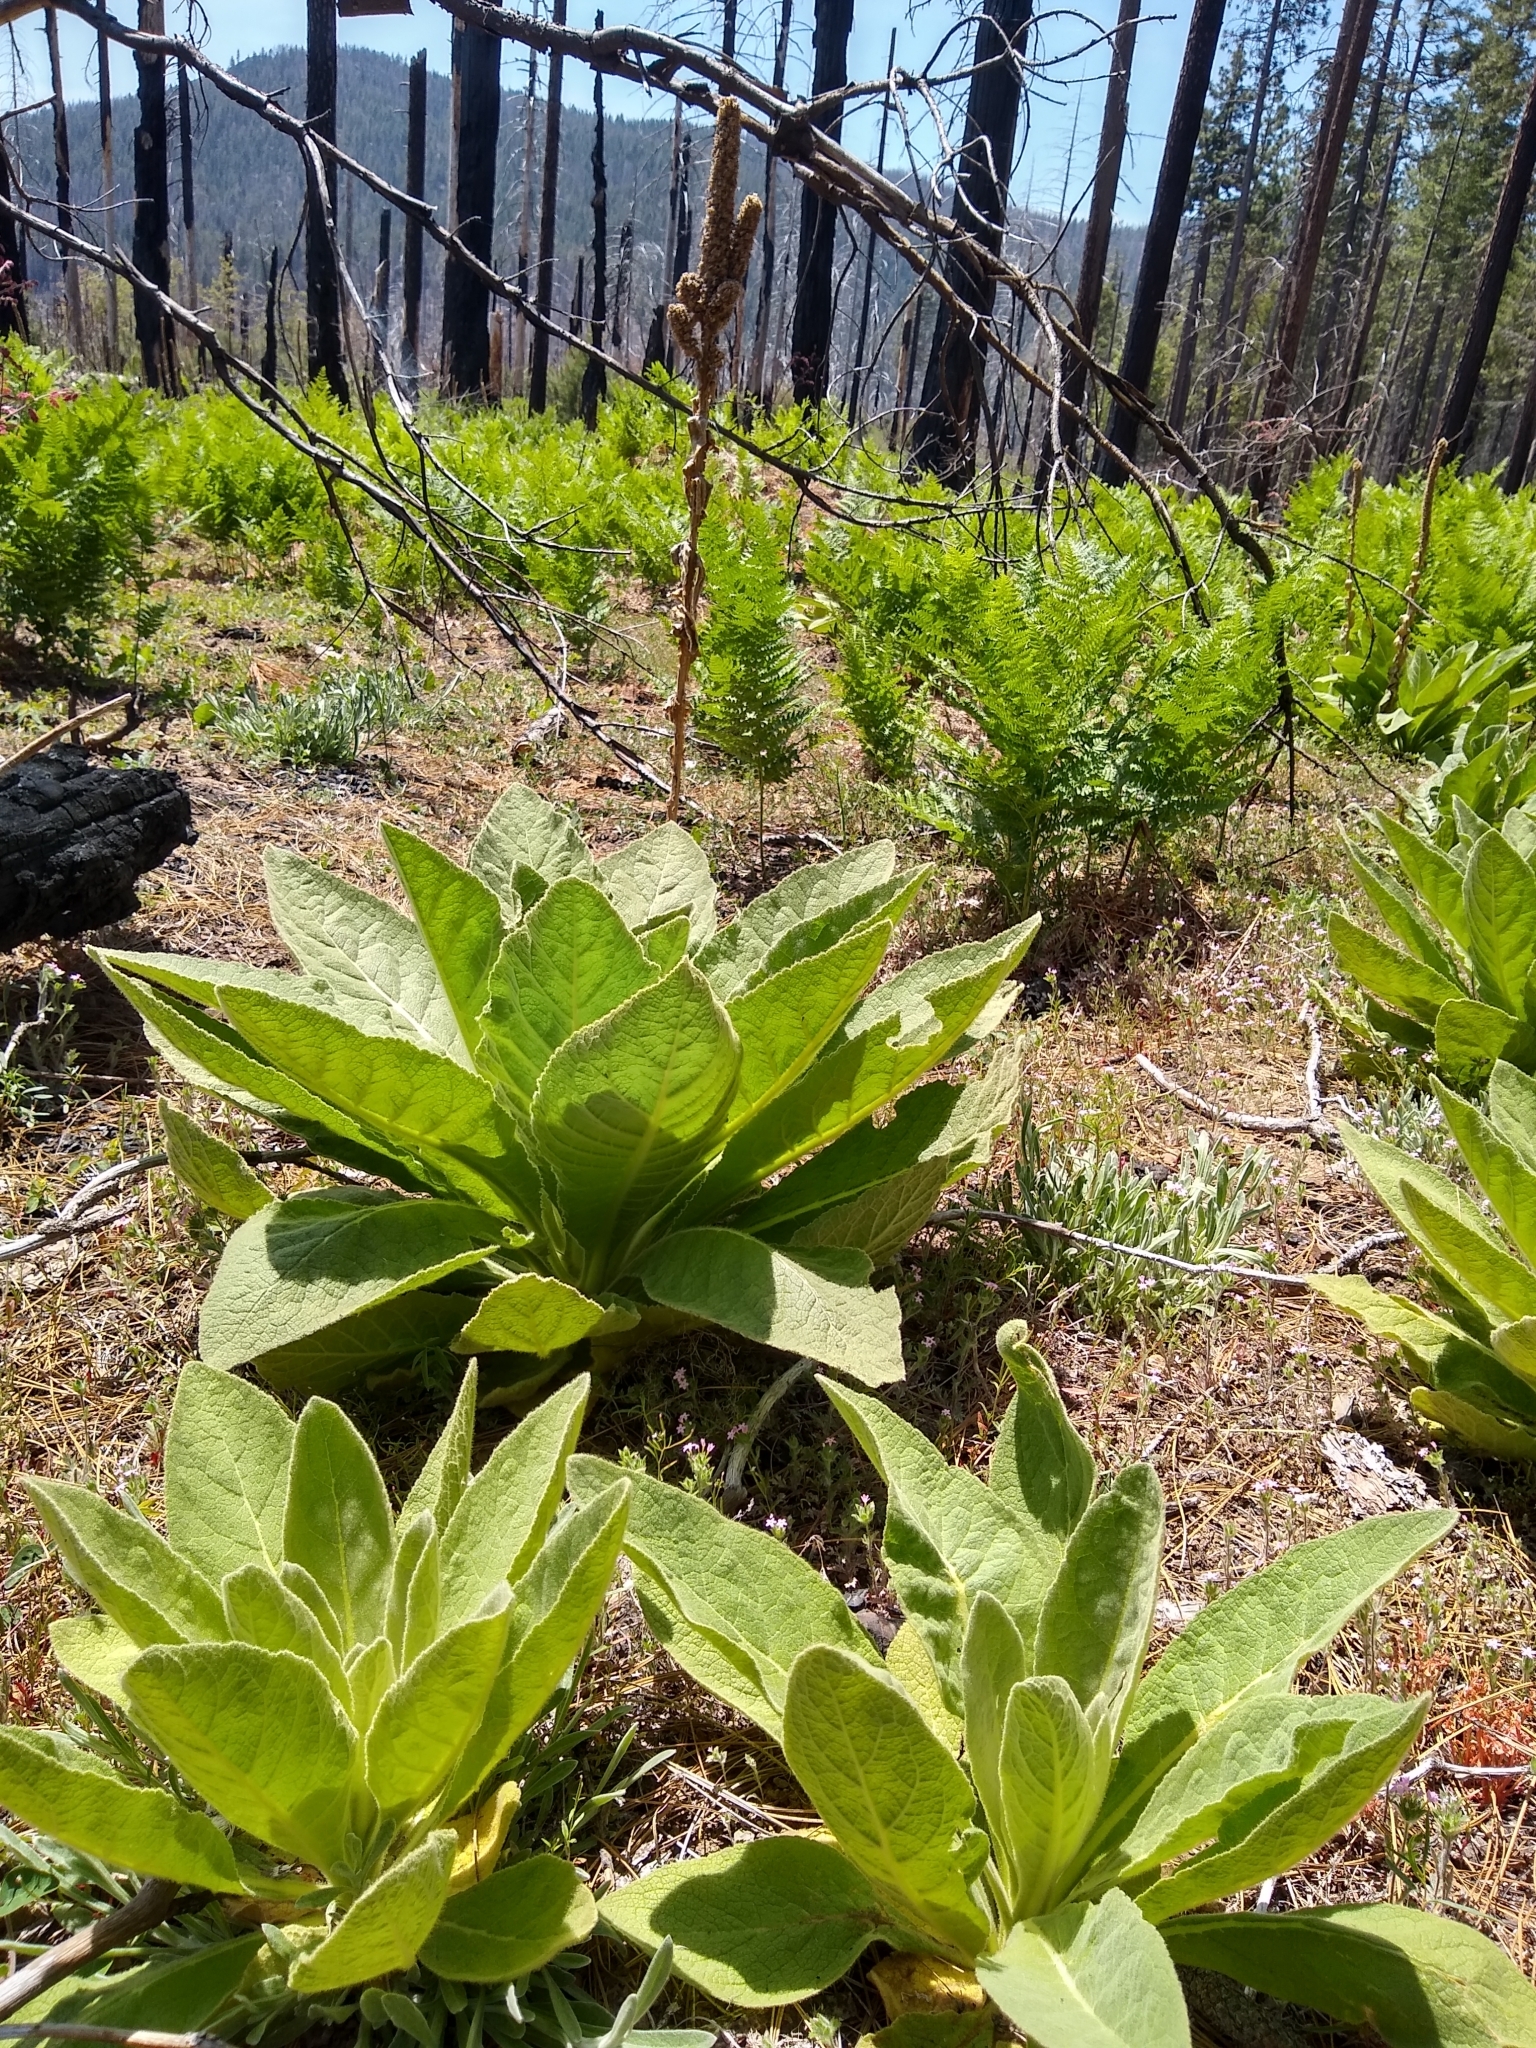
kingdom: Plantae
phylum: Tracheophyta
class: Magnoliopsida
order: Lamiales
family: Scrophulariaceae
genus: Verbascum
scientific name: Verbascum thapsus
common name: Common mullein
